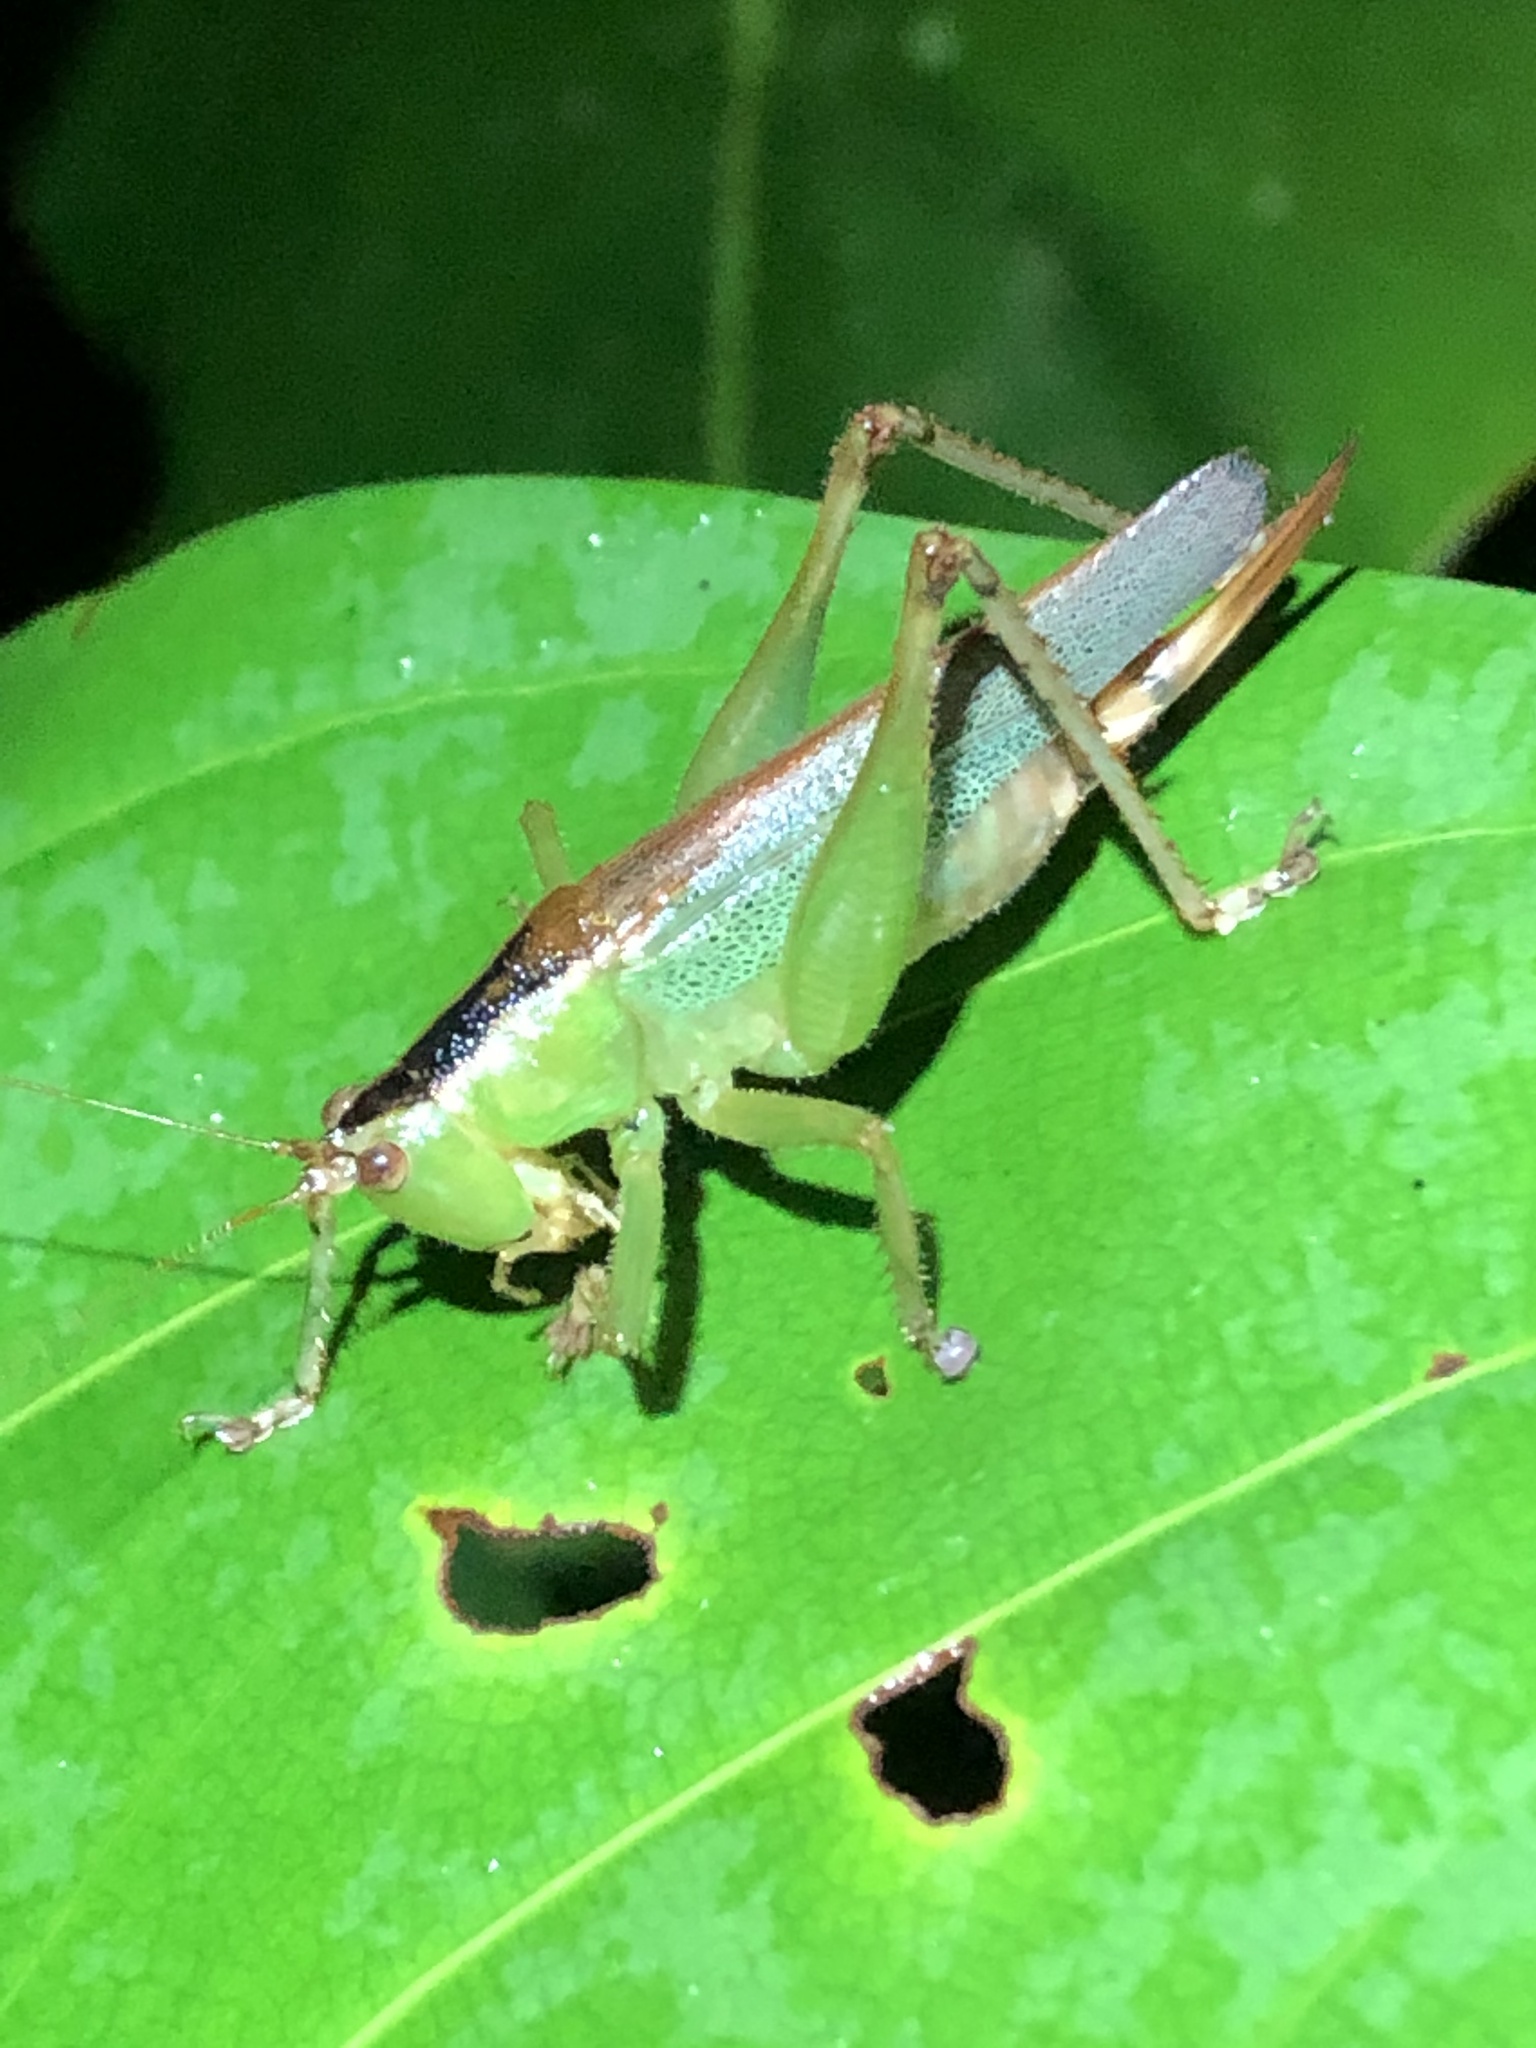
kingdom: Animalia
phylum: Arthropoda
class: Insecta
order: Orthoptera
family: Tettigoniidae
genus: Eschatoceras
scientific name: Eschatoceras nigrovittatus
